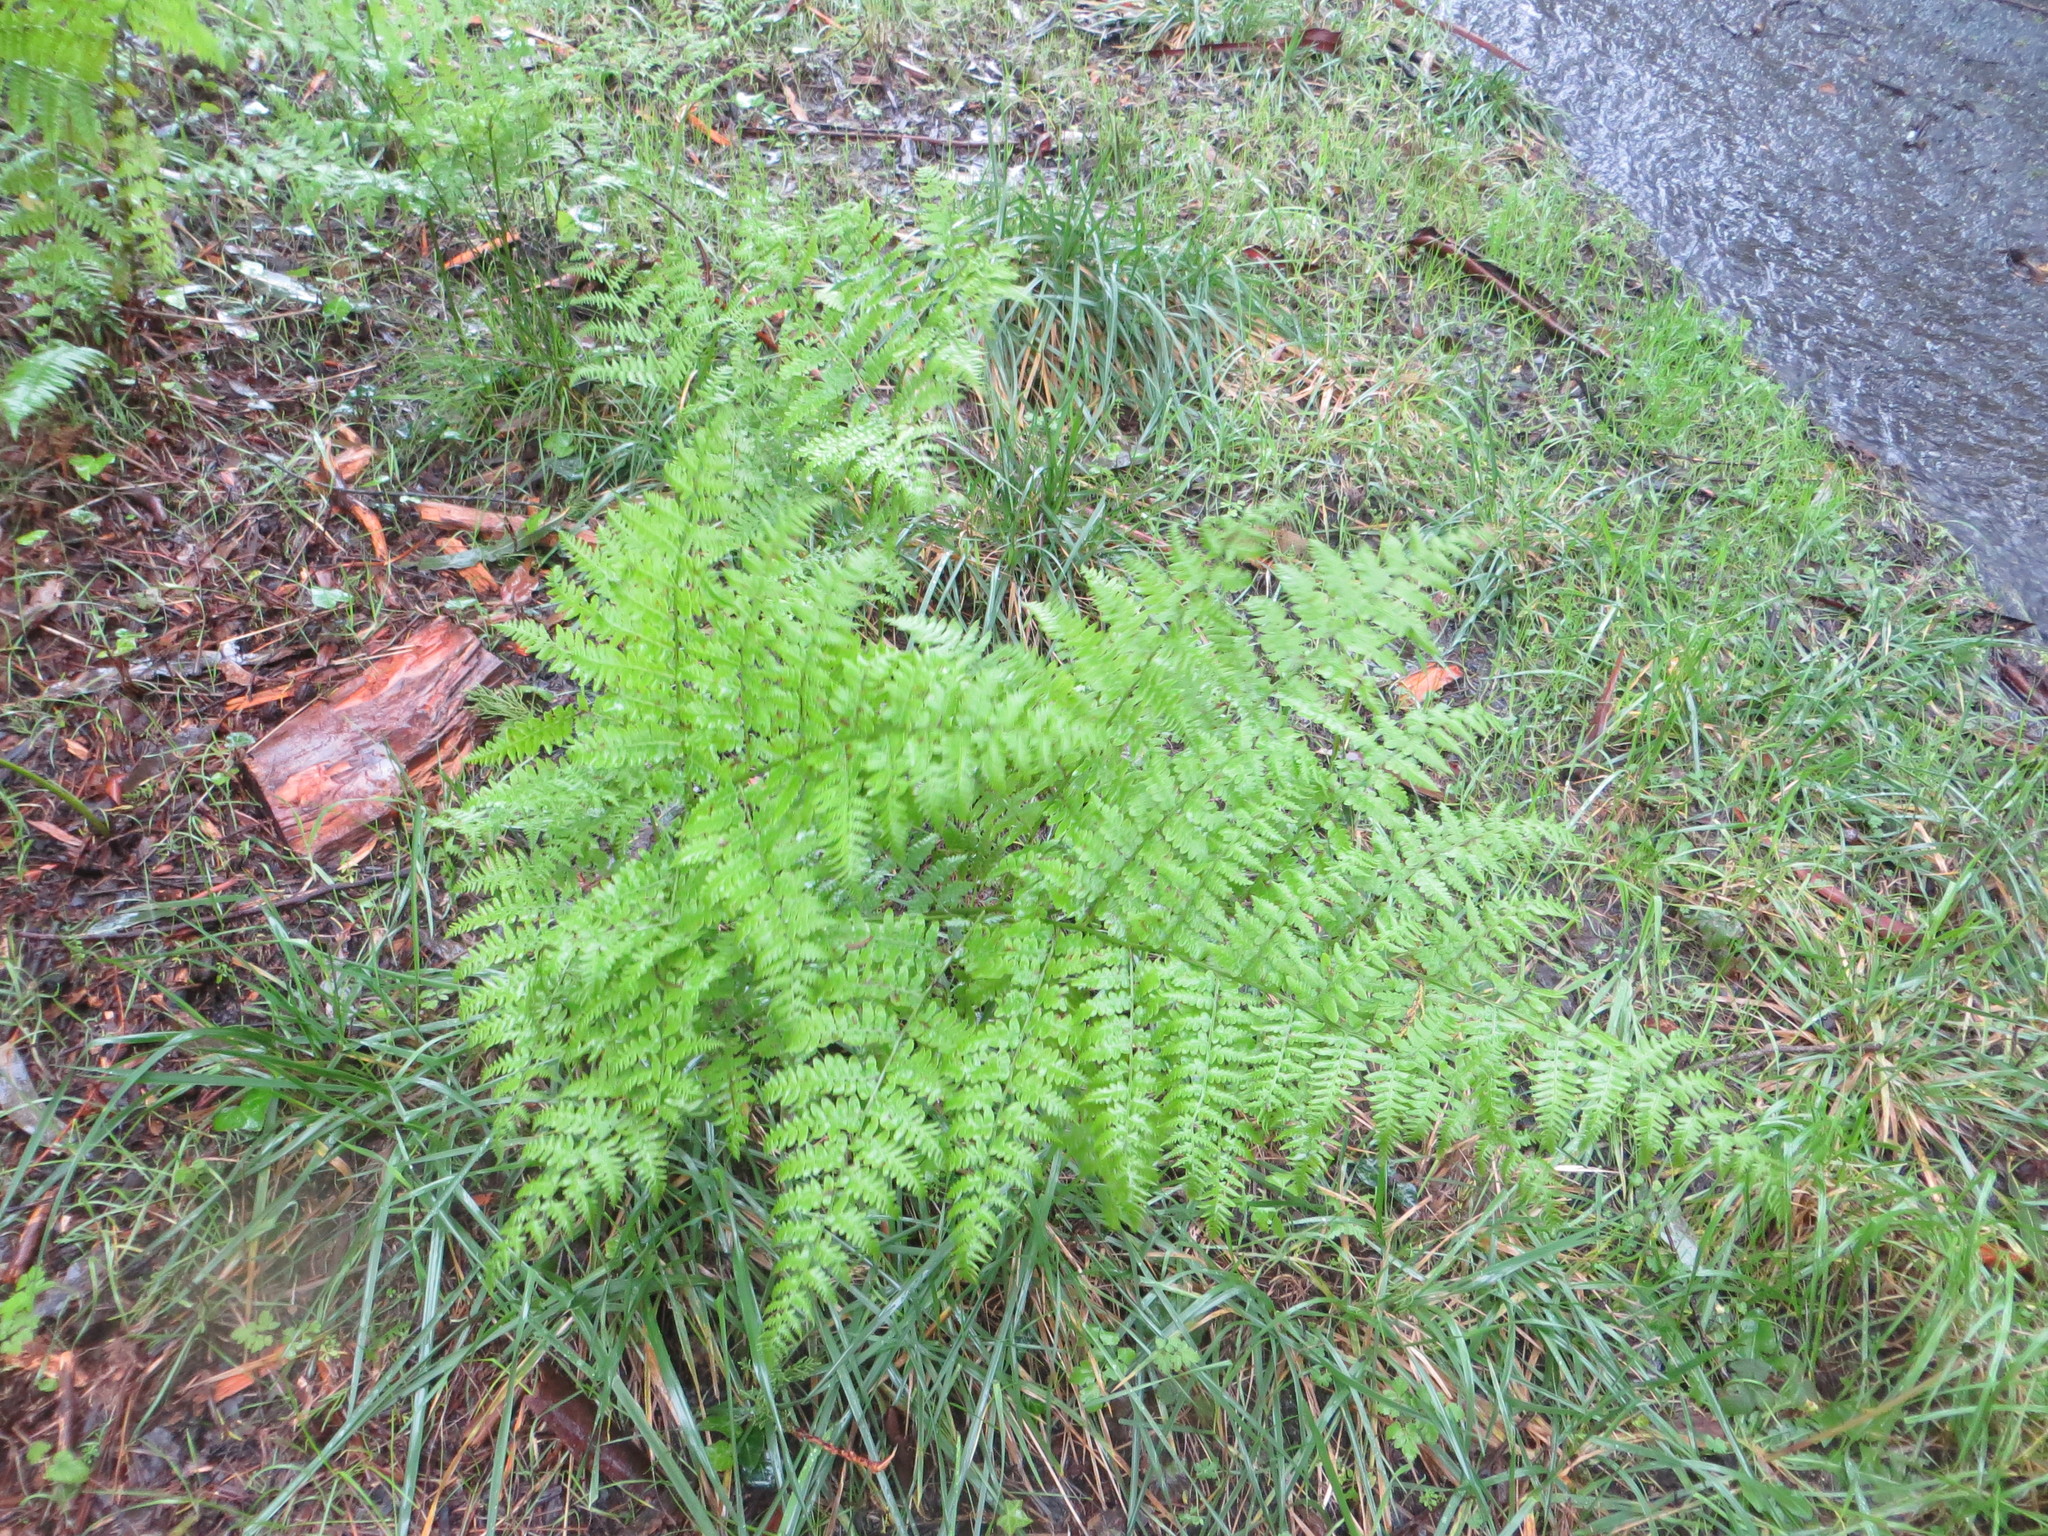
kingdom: Plantae
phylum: Tracheophyta
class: Polypodiopsida
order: Polypodiales
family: Dennstaedtiaceae
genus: Pteridium
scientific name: Pteridium aquilinum
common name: Bracken
